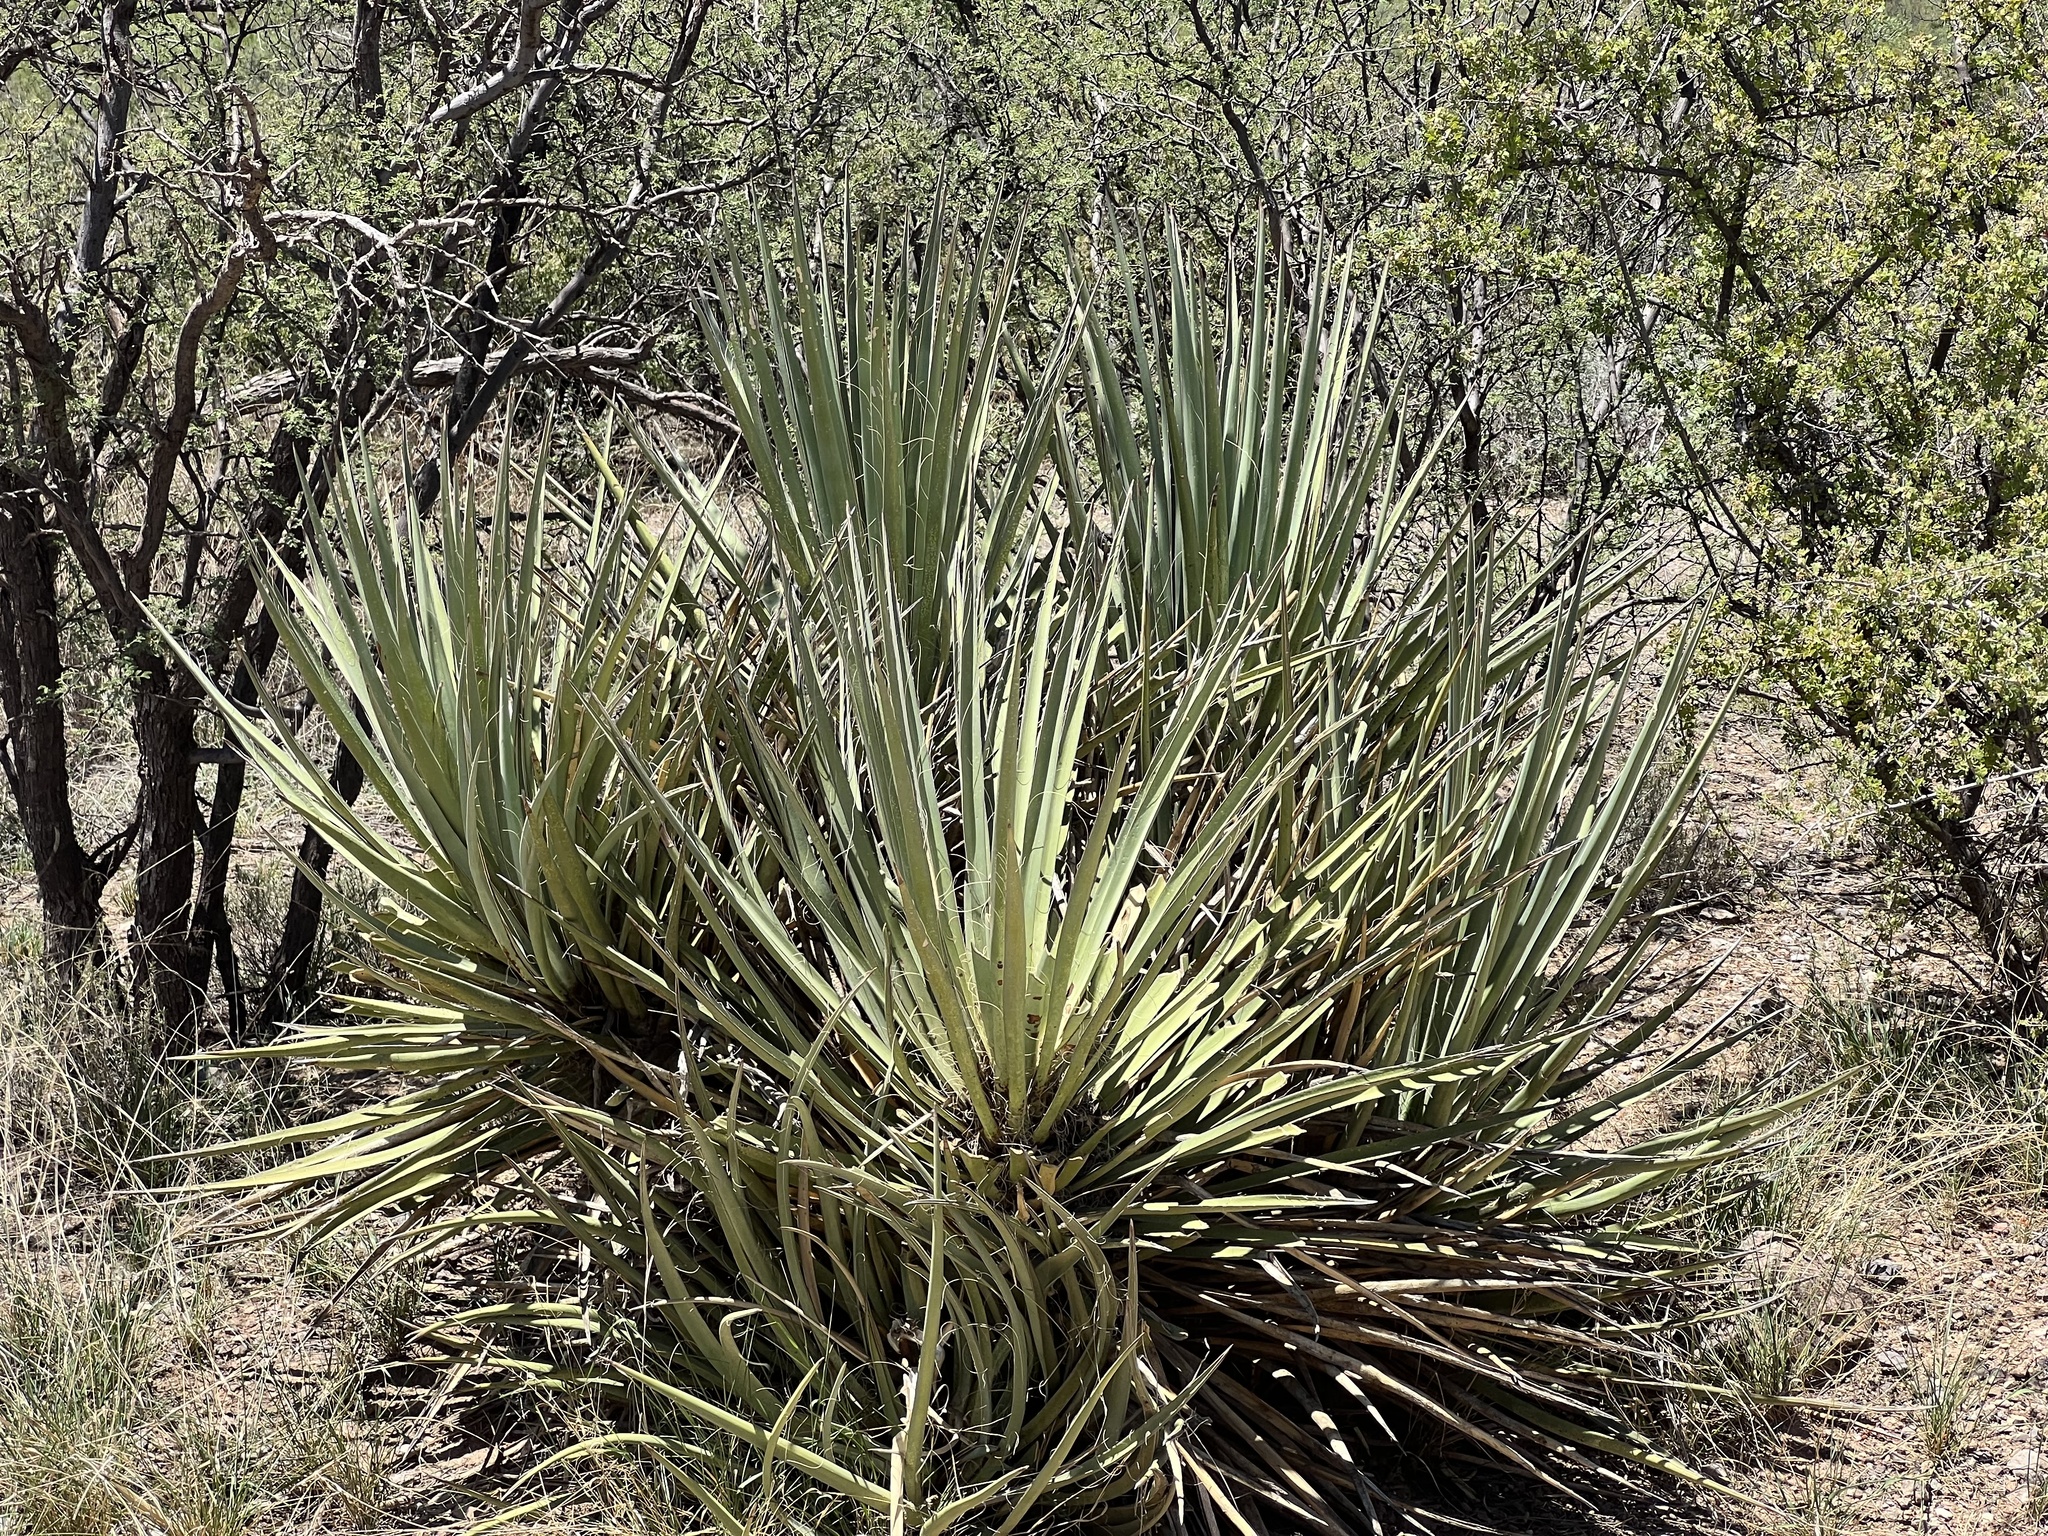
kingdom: Plantae
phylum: Tracheophyta
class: Liliopsida
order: Asparagales
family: Asparagaceae
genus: Yucca
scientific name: Yucca baccata
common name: Banana yucca
